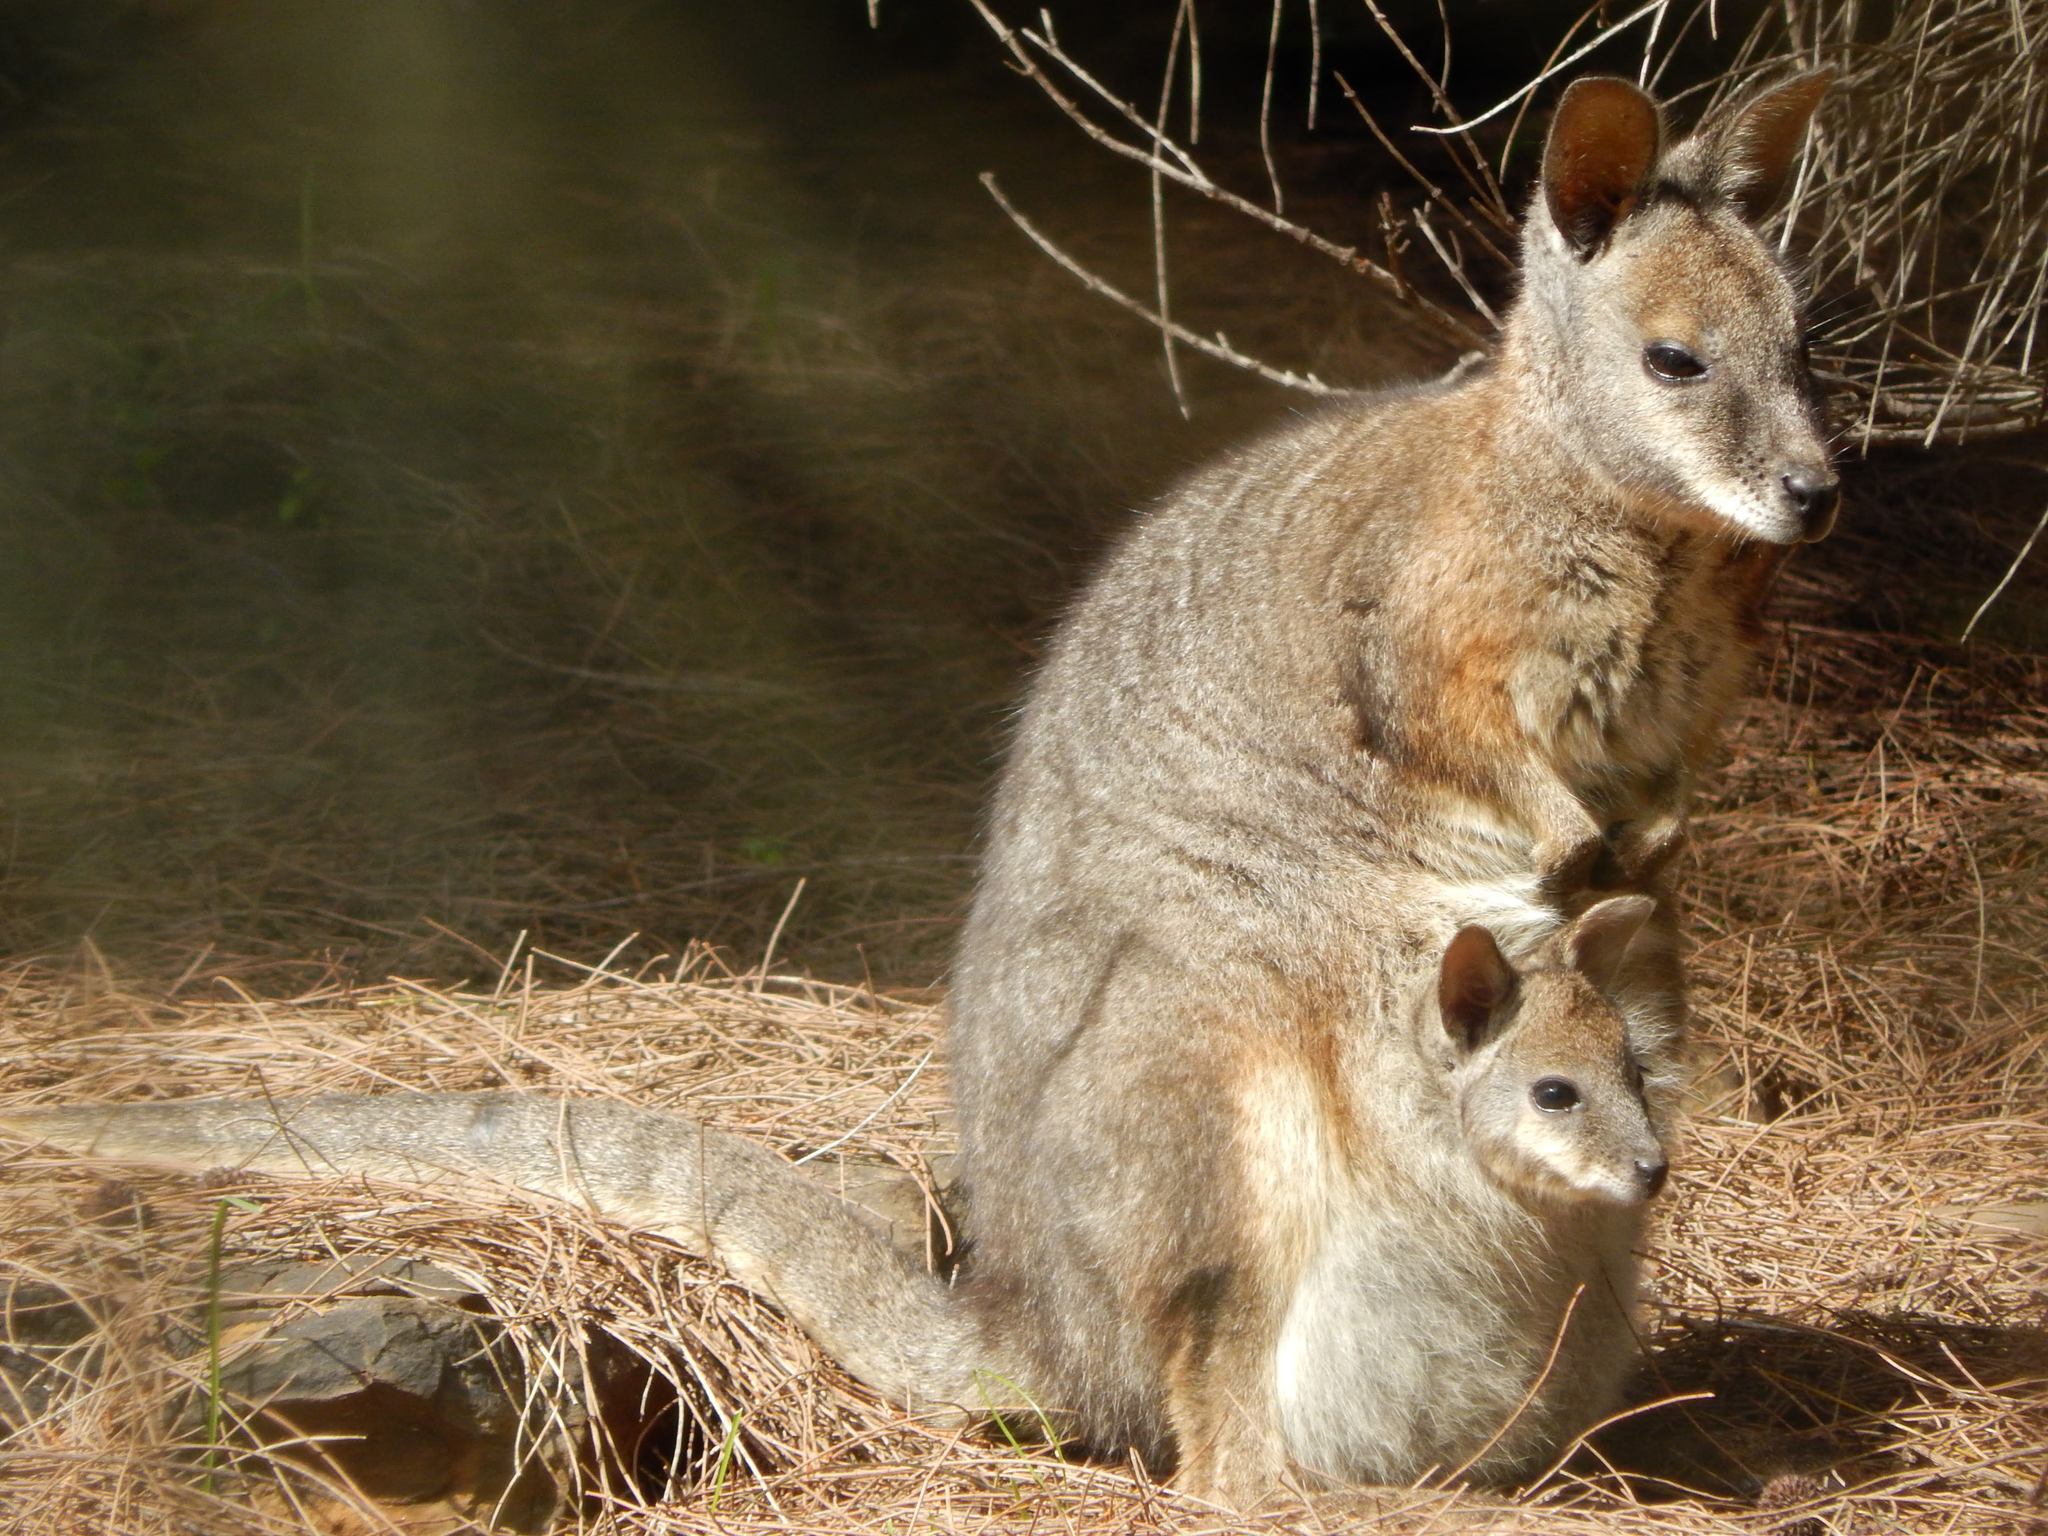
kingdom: Animalia
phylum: Chordata
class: Mammalia
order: Diprotodontia
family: Macropodidae
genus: Macropus
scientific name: Macropus eugenii
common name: Tammar wallaby
